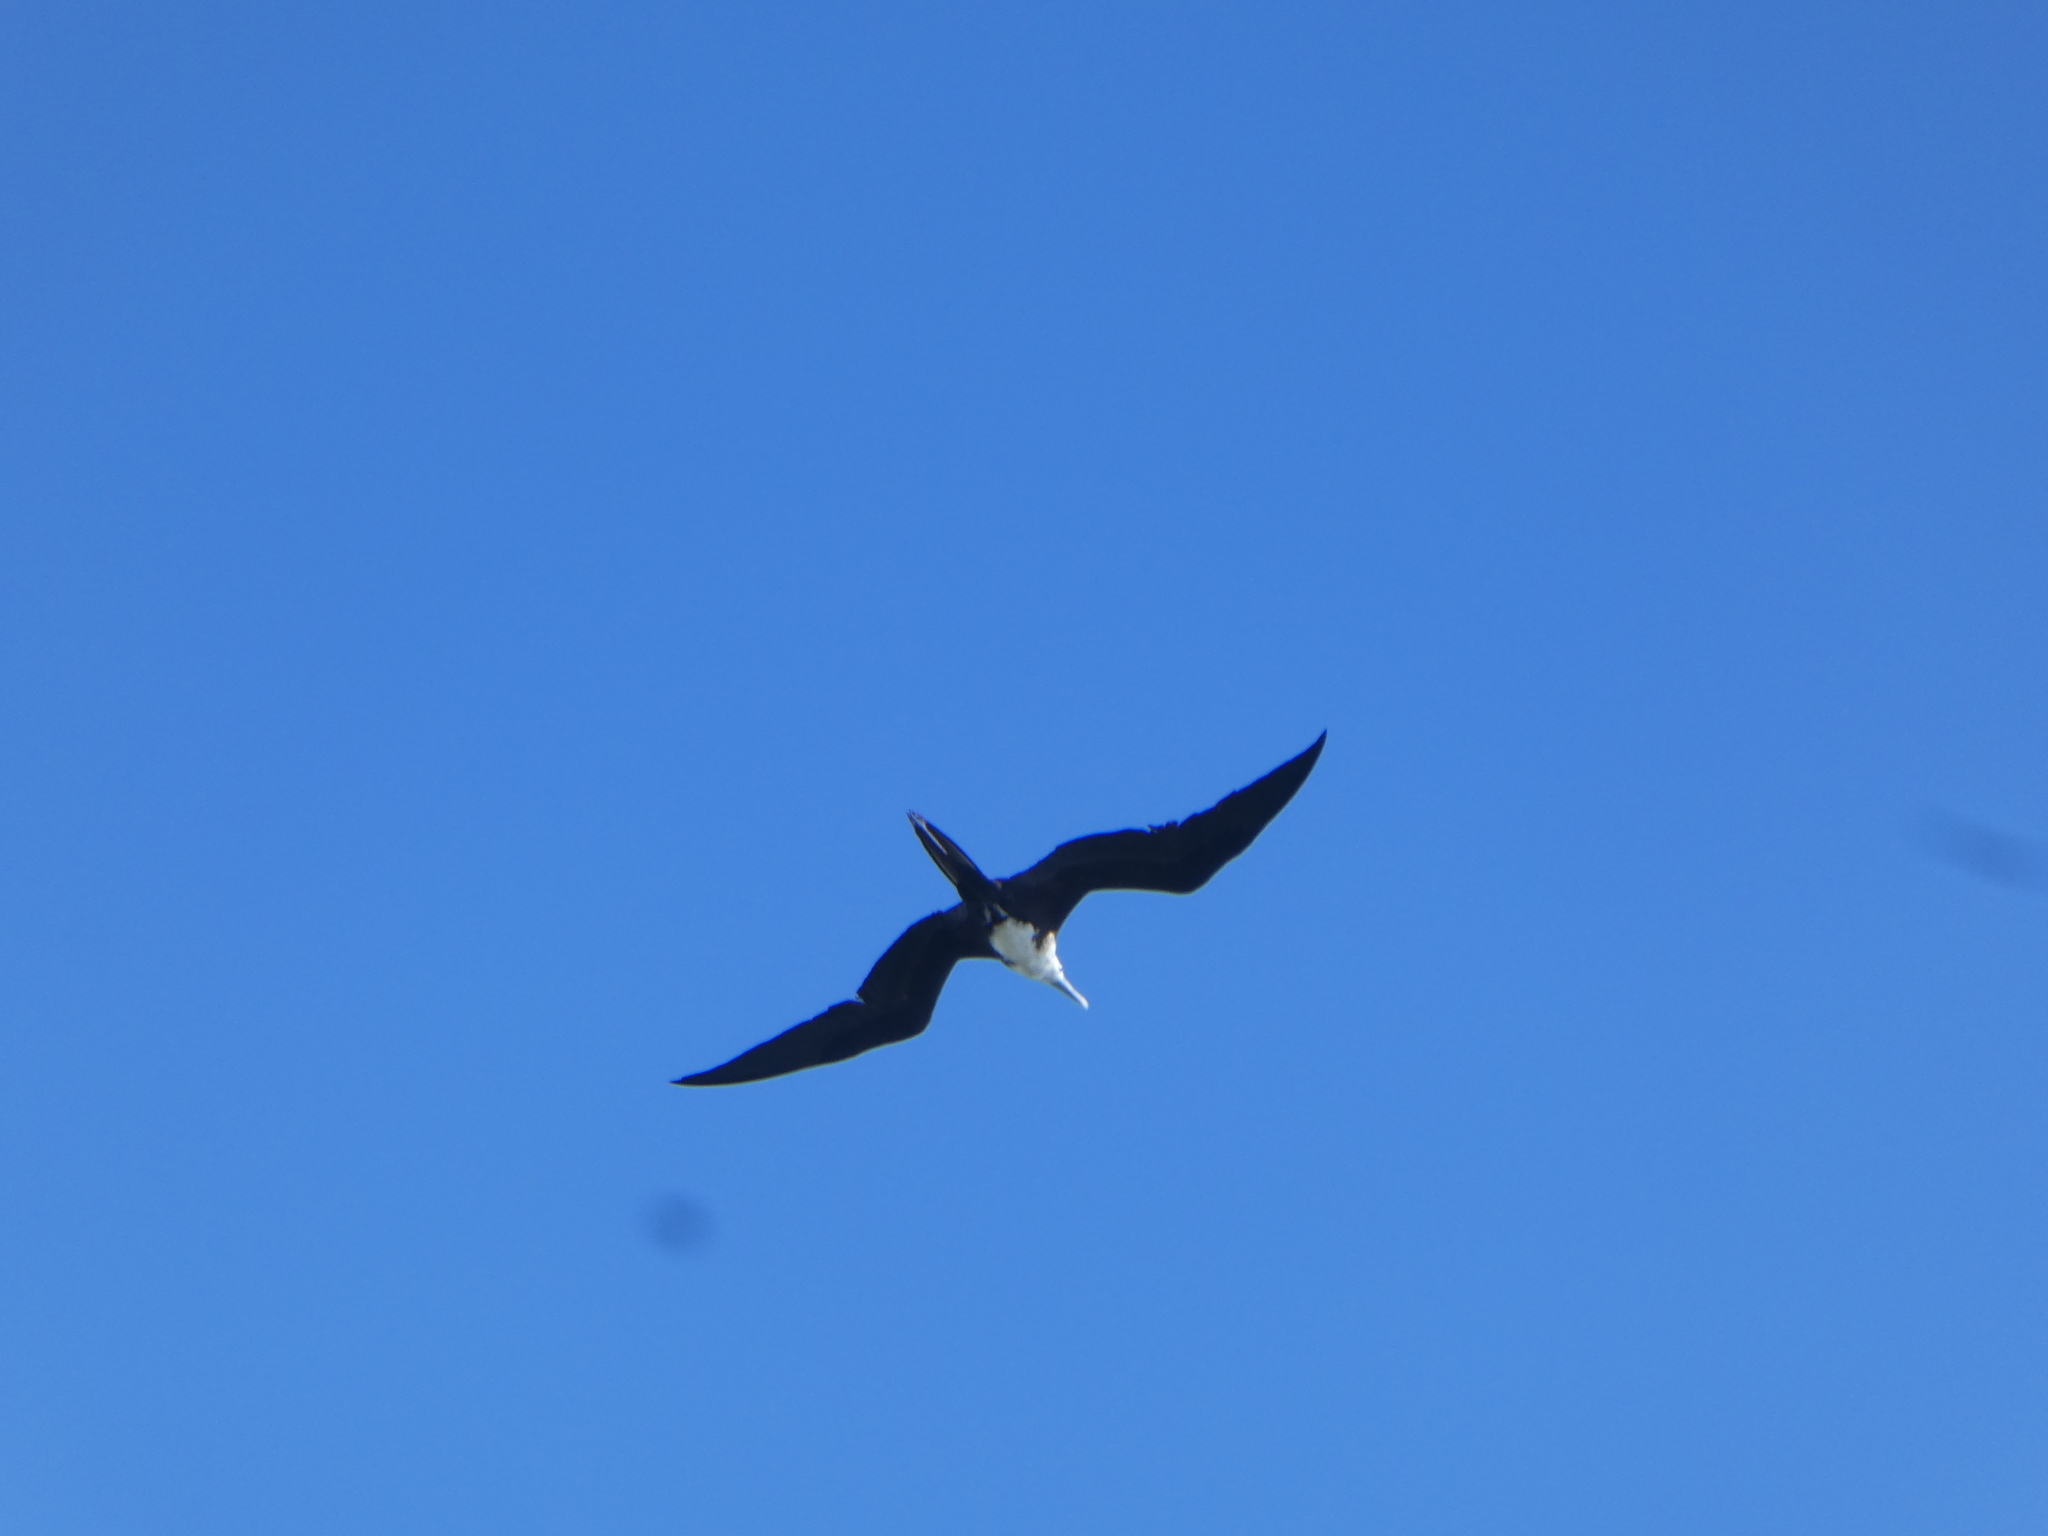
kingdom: Animalia
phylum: Chordata
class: Aves
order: Suliformes
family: Fregatidae
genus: Fregata
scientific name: Fregata magnificens
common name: Magnificent frigatebird
